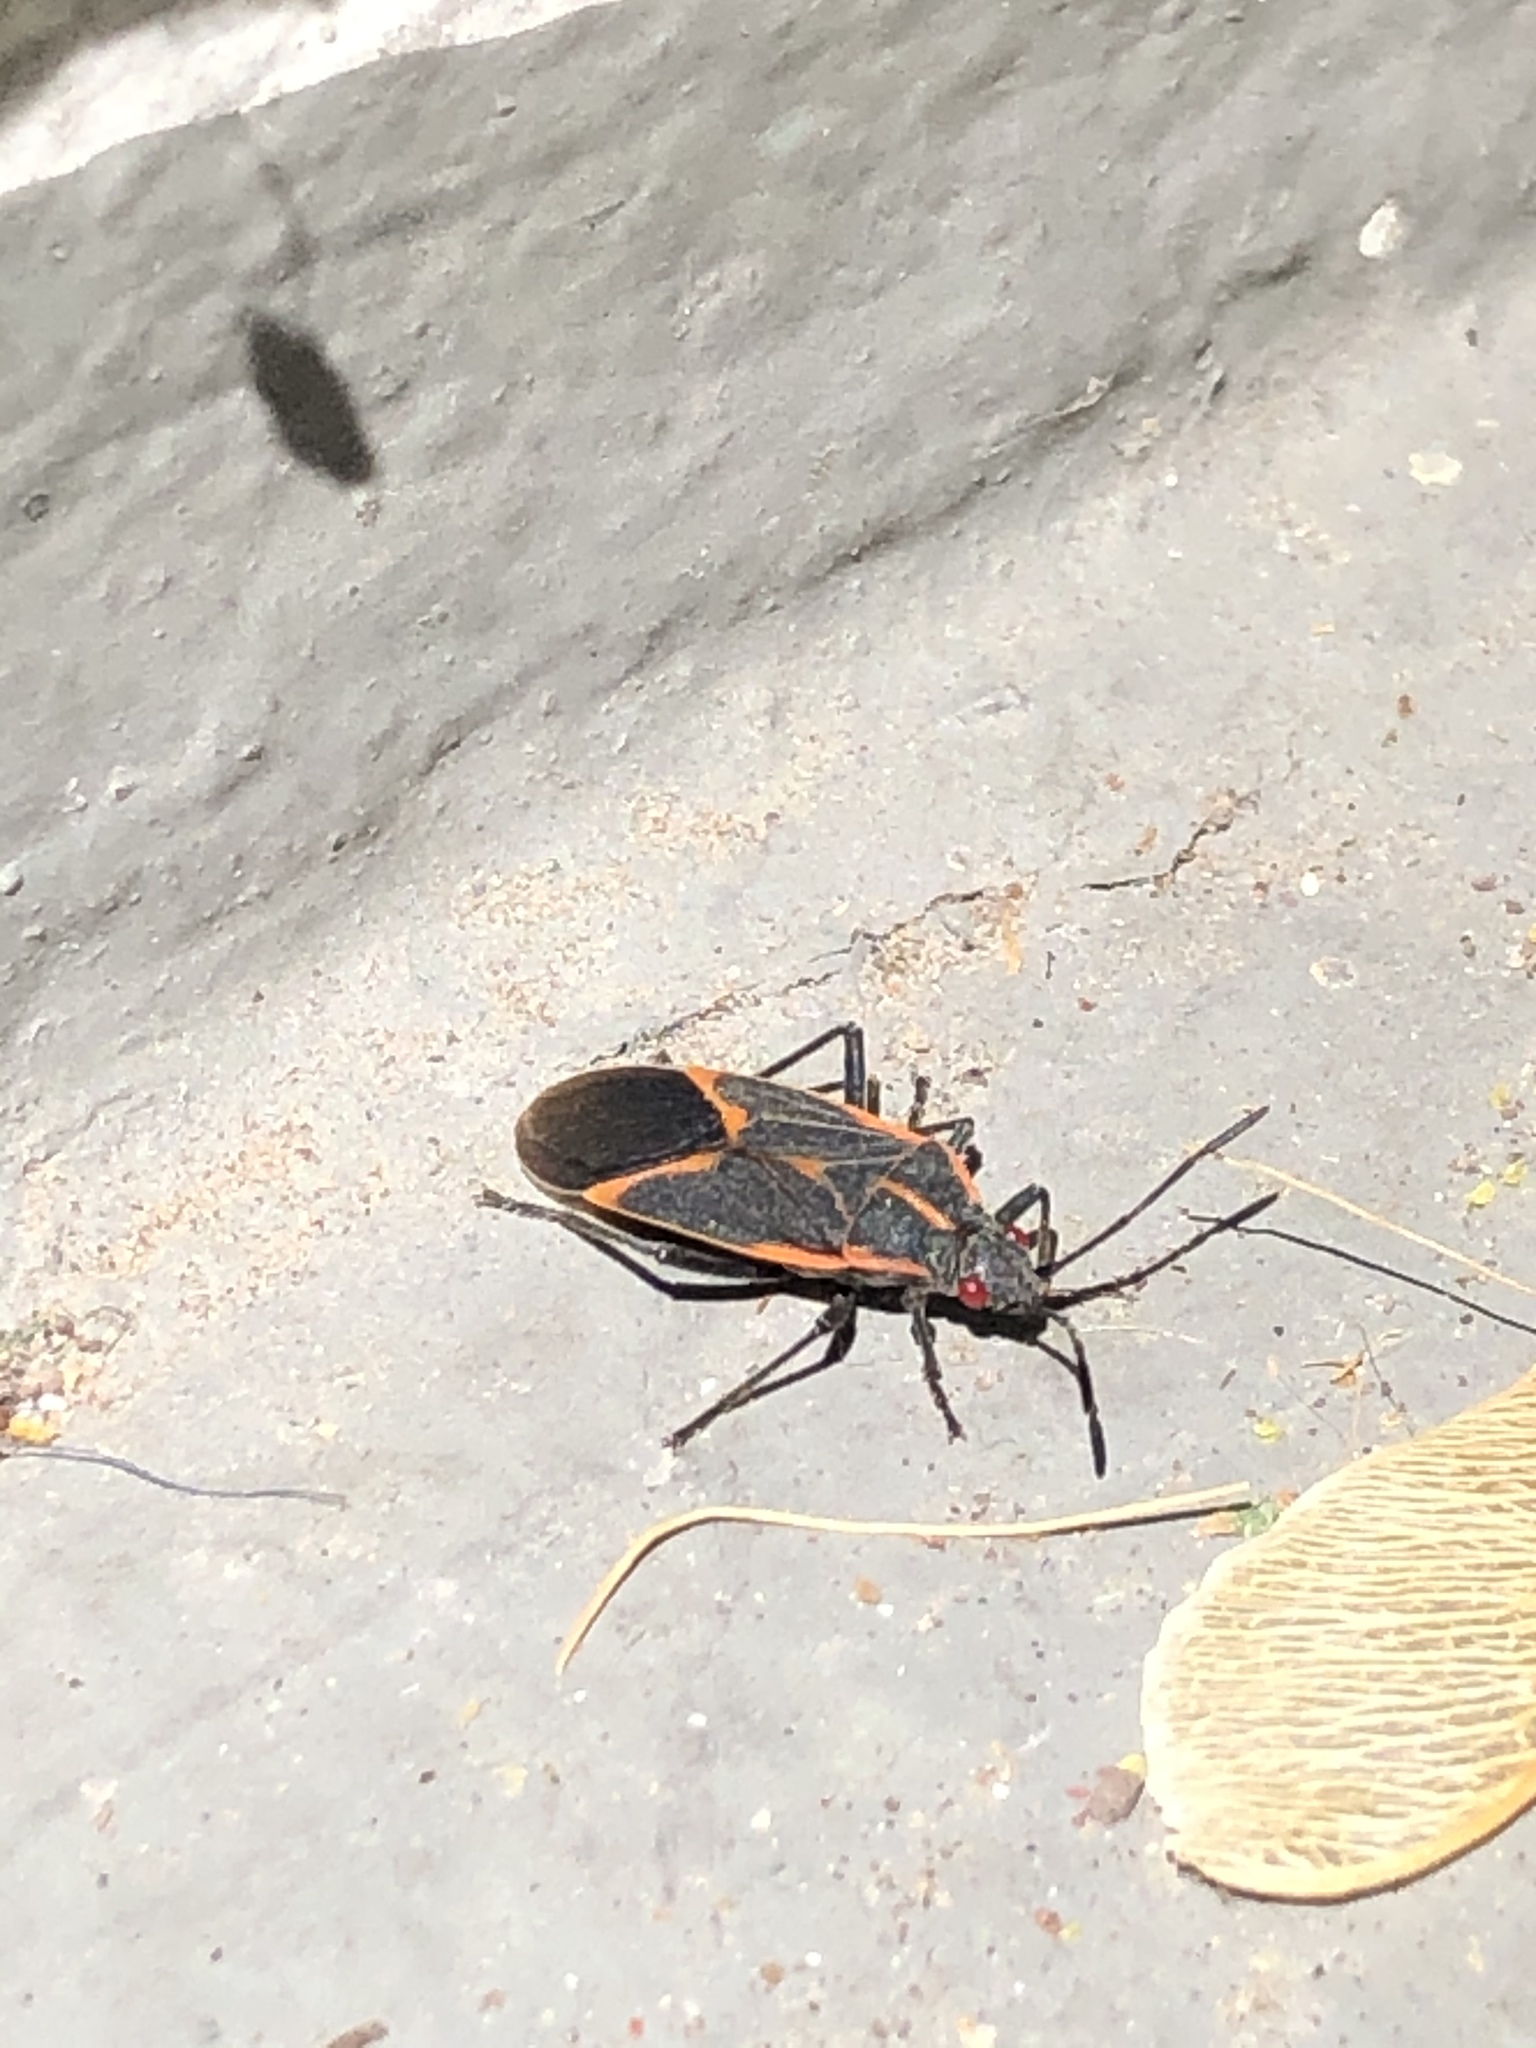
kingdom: Animalia
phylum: Arthropoda
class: Insecta
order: Hemiptera
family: Rhopalidae
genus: Boisea
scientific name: Boisea trivittata
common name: Boxelder bug
